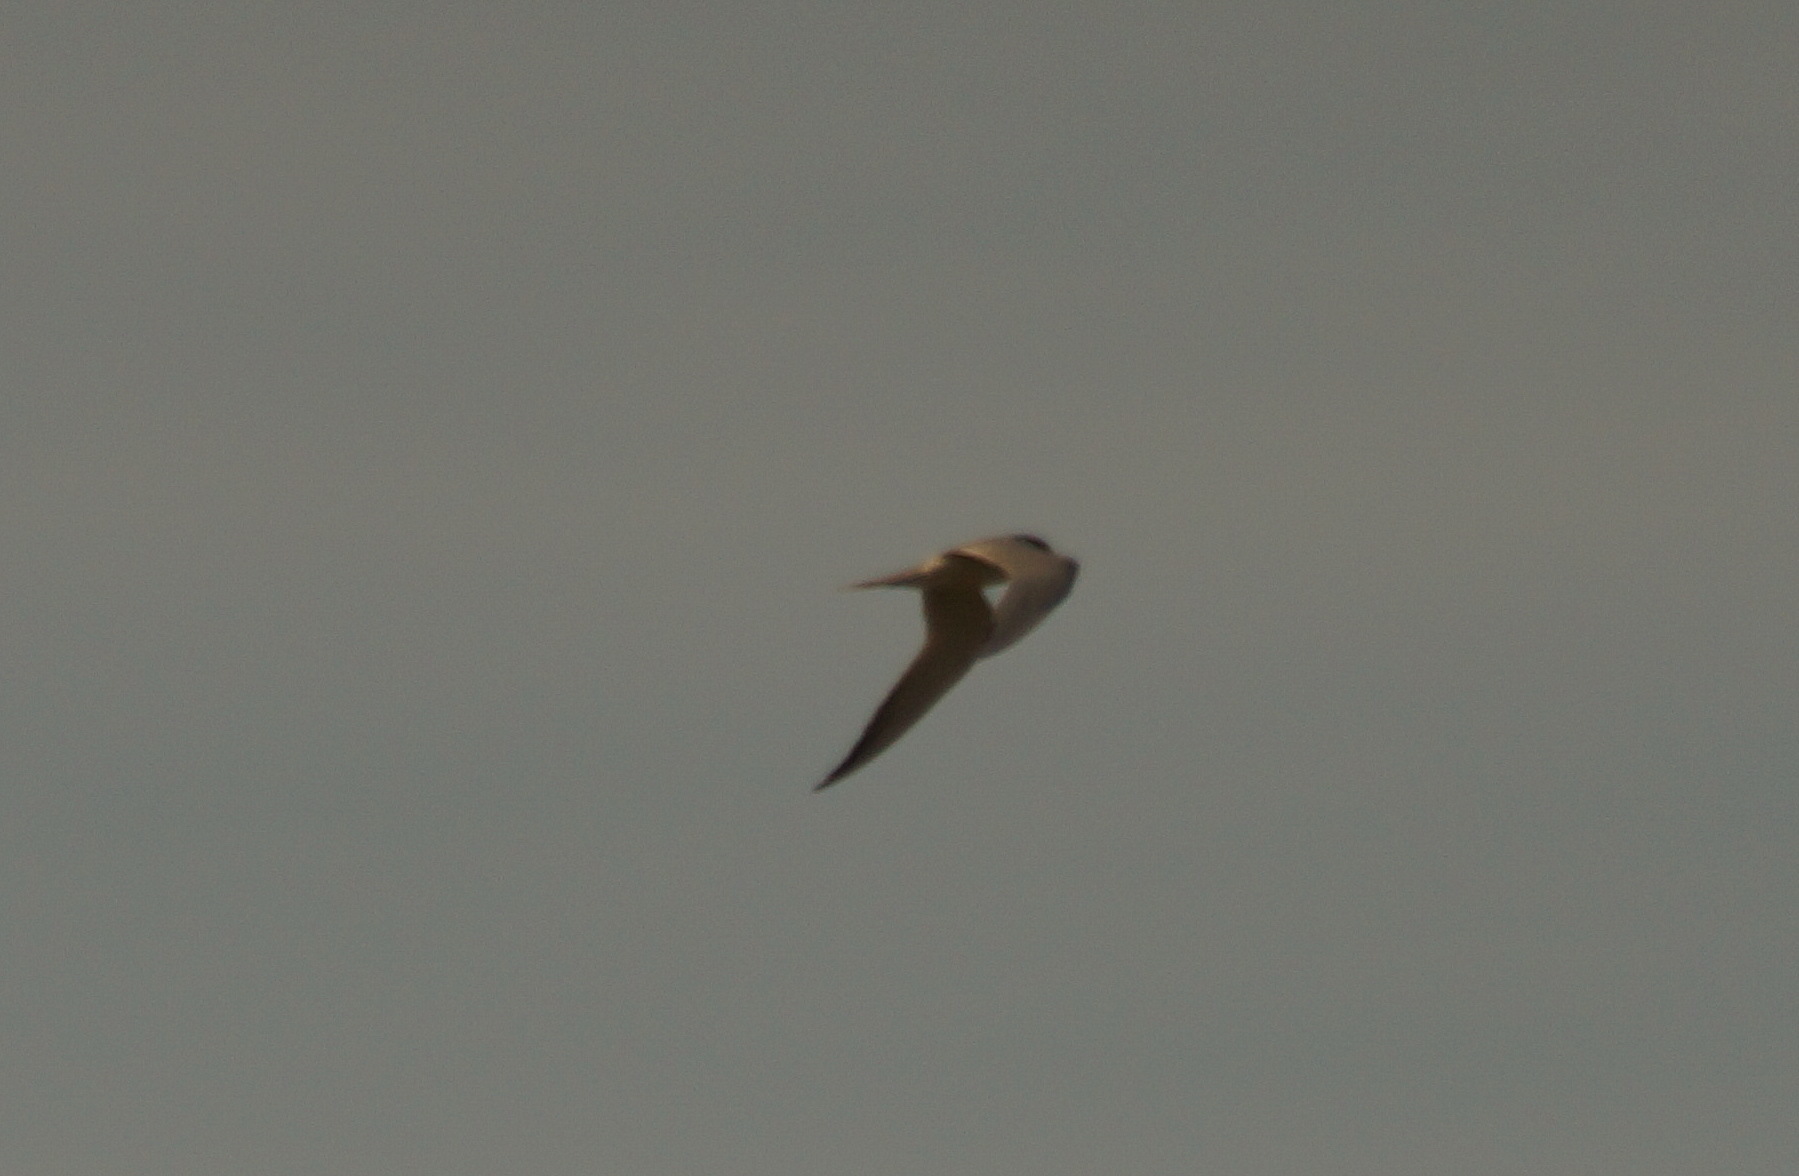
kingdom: Animalia
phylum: Chordata
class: Aves
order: Charadriiformes
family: Laridae
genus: Gelochelidon
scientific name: Gelochelidon nilotica
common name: Gull-billed tern
